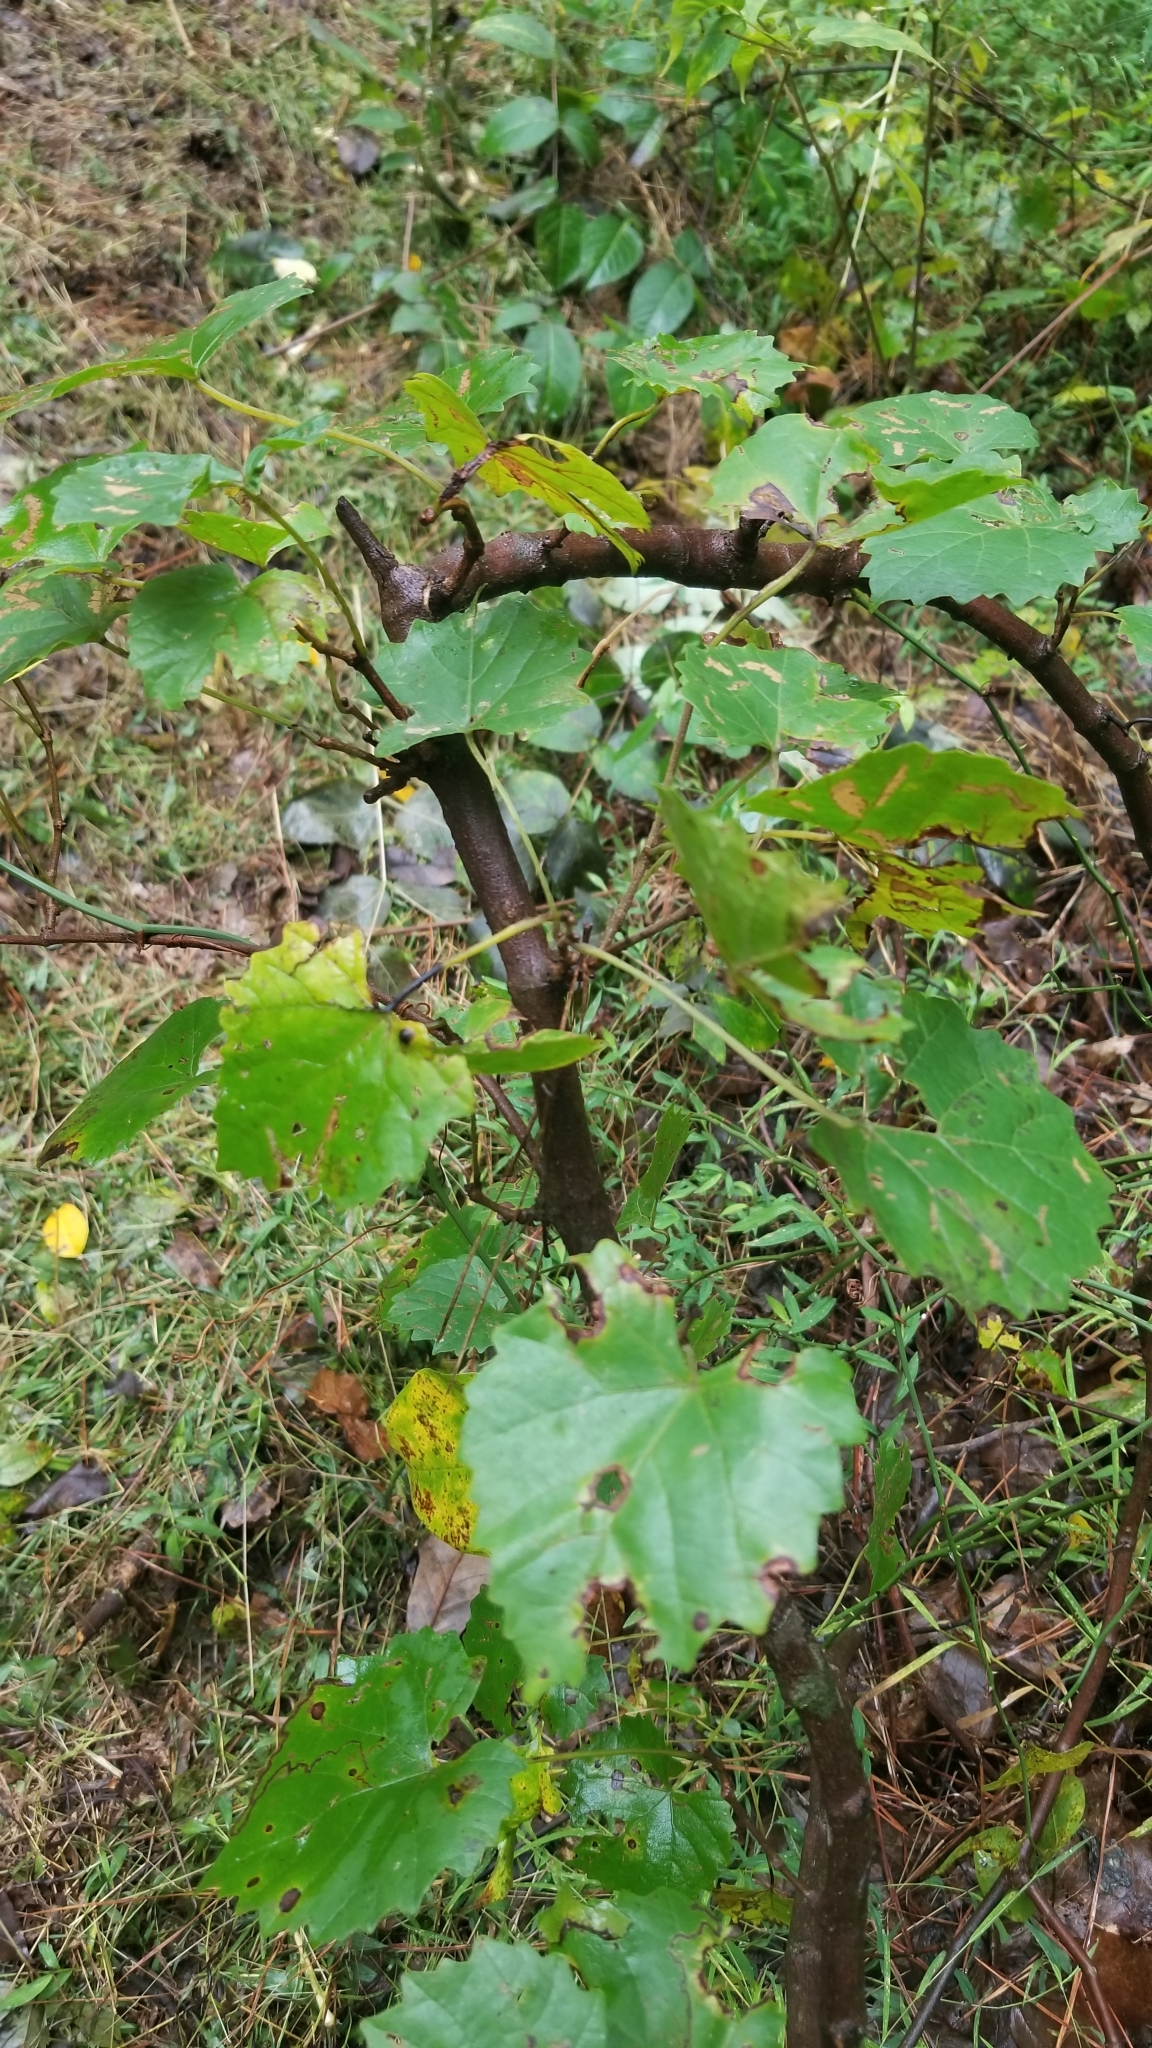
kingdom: Plantae
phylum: Tracheophyta
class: Magnoliopsida
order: Vitales
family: Vitaceae
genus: Vitis
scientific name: Vitis rotundifolia
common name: Muscadine grape
